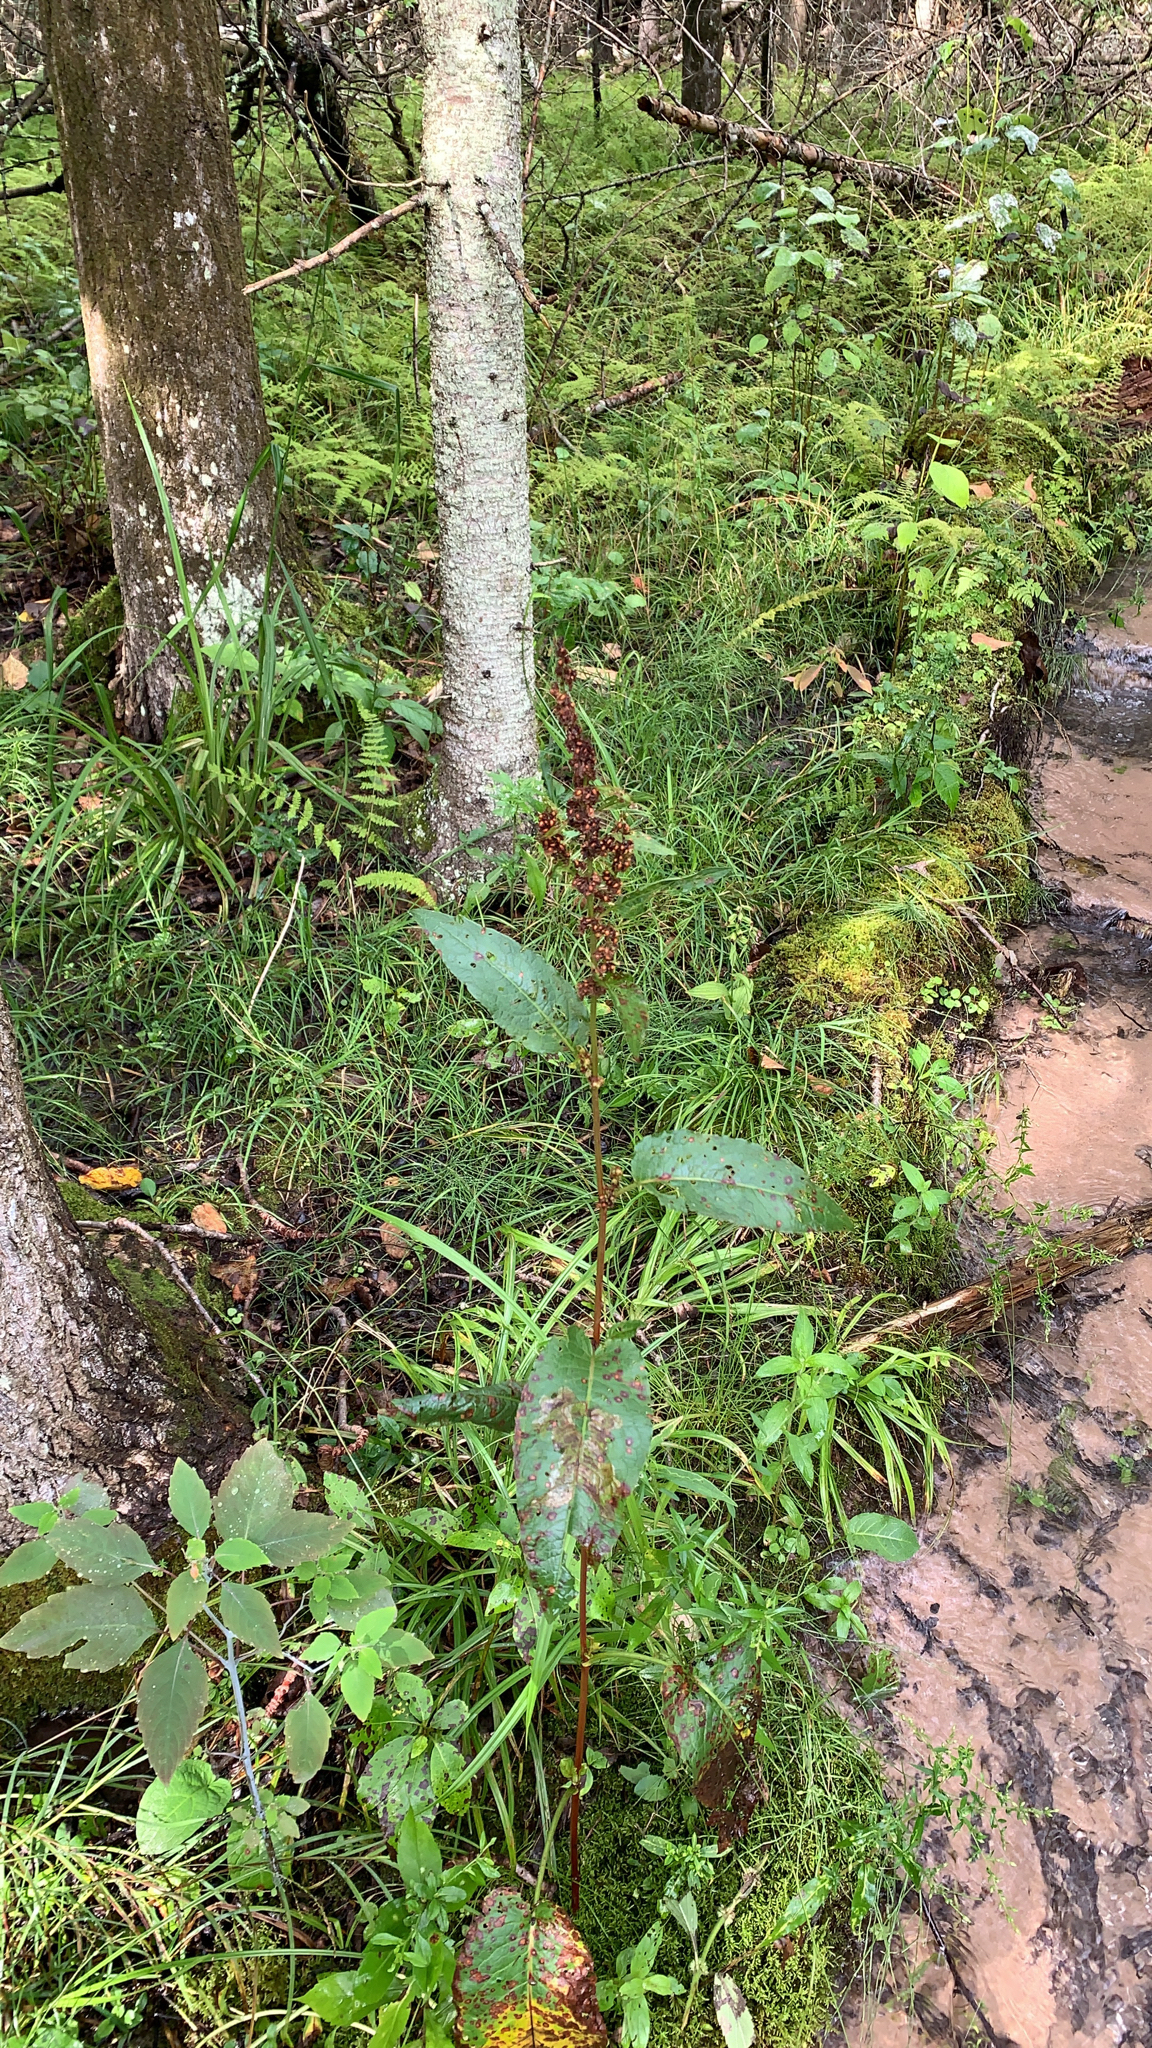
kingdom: Plantae
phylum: Tracheophyta
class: Magnoliopsida
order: Caryophyllales
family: Polygonaceae
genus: Rumex
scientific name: Rumex obtusifolius
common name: Bitter dock
